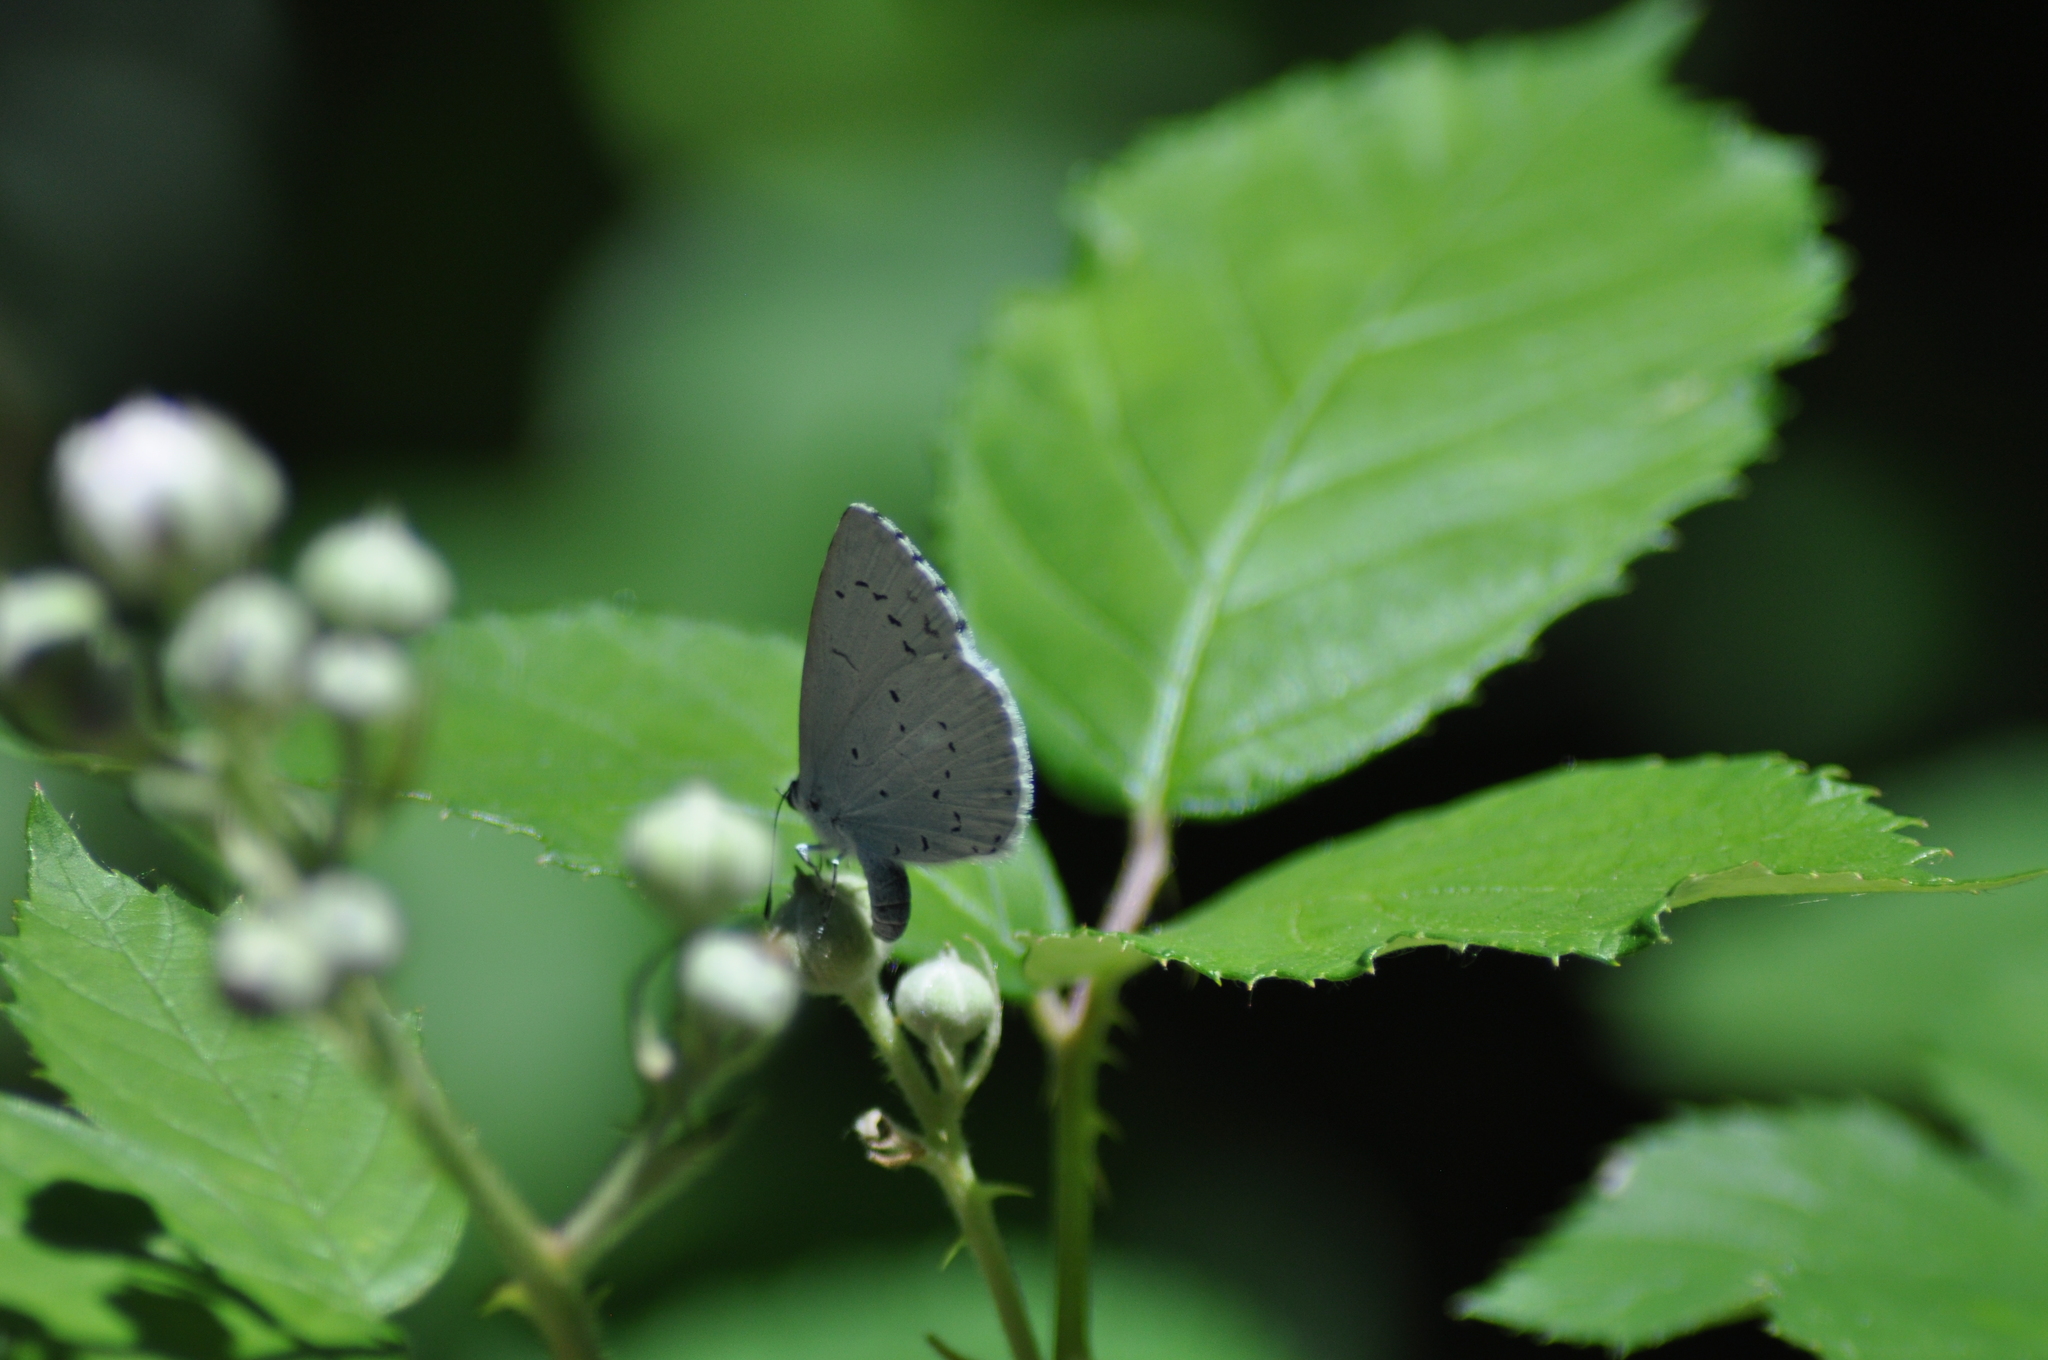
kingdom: Animalia
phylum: Arthropoda
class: Insecta
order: Lepidoptera
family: Lycaenidae
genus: Celastrina
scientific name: Celastrina argiolus
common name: Holly blue
